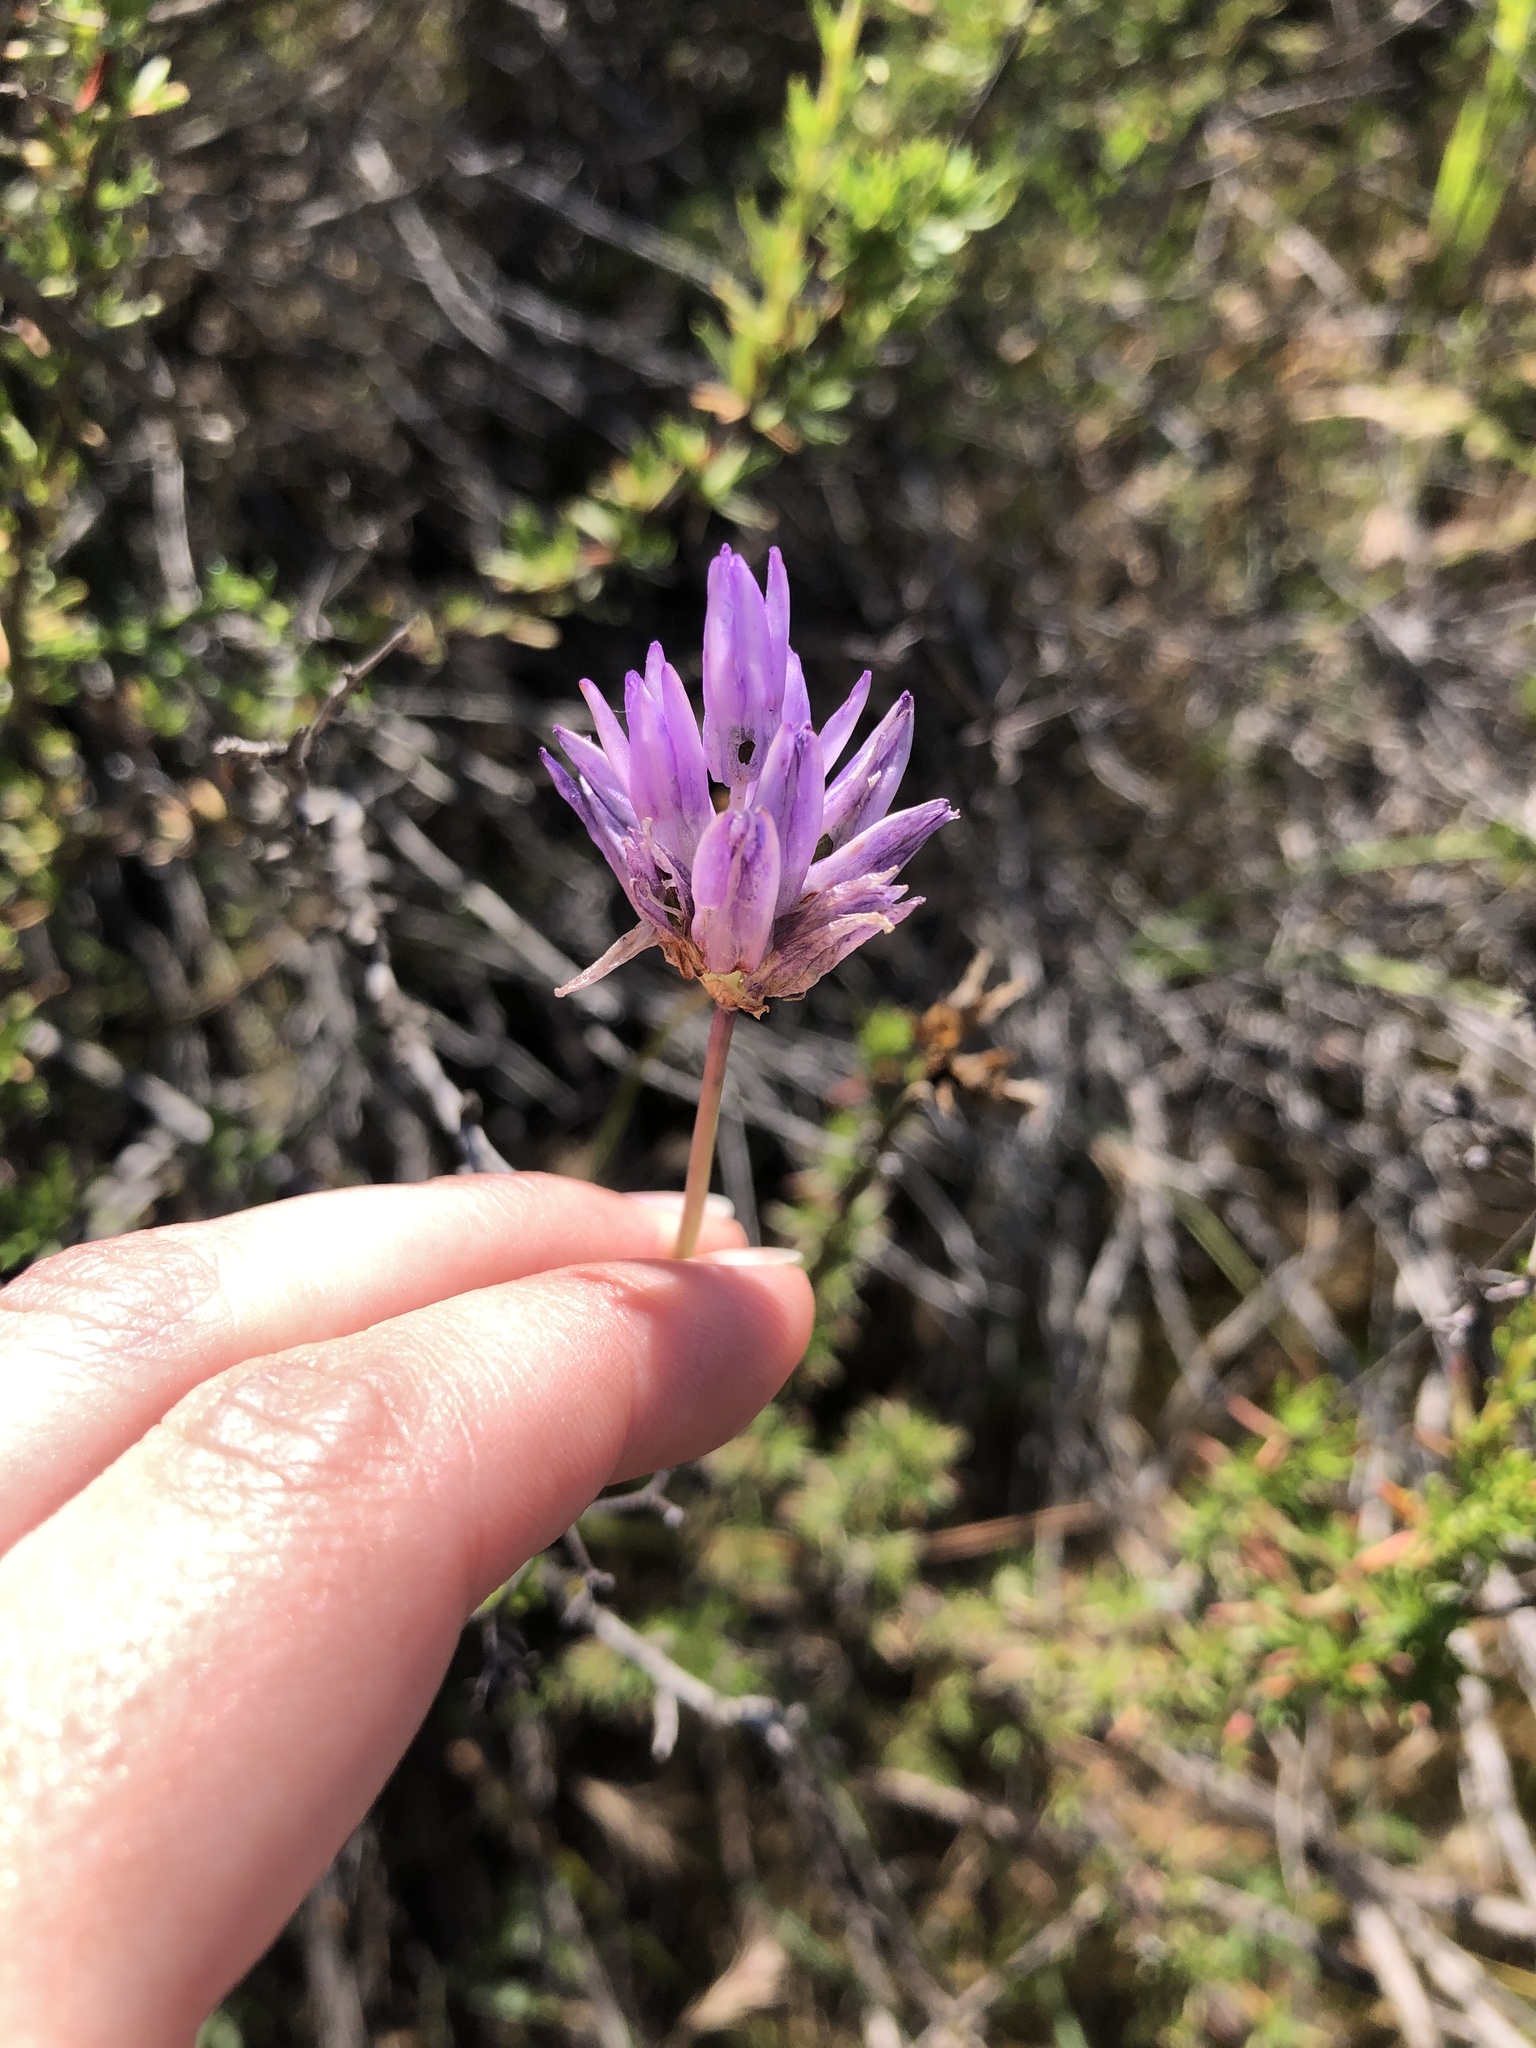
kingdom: Plantae
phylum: Tracheophyta
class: Liliopsida
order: Asparagales
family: Asparagaceae
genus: Dipterostemon
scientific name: Dipterostemon capitatus
